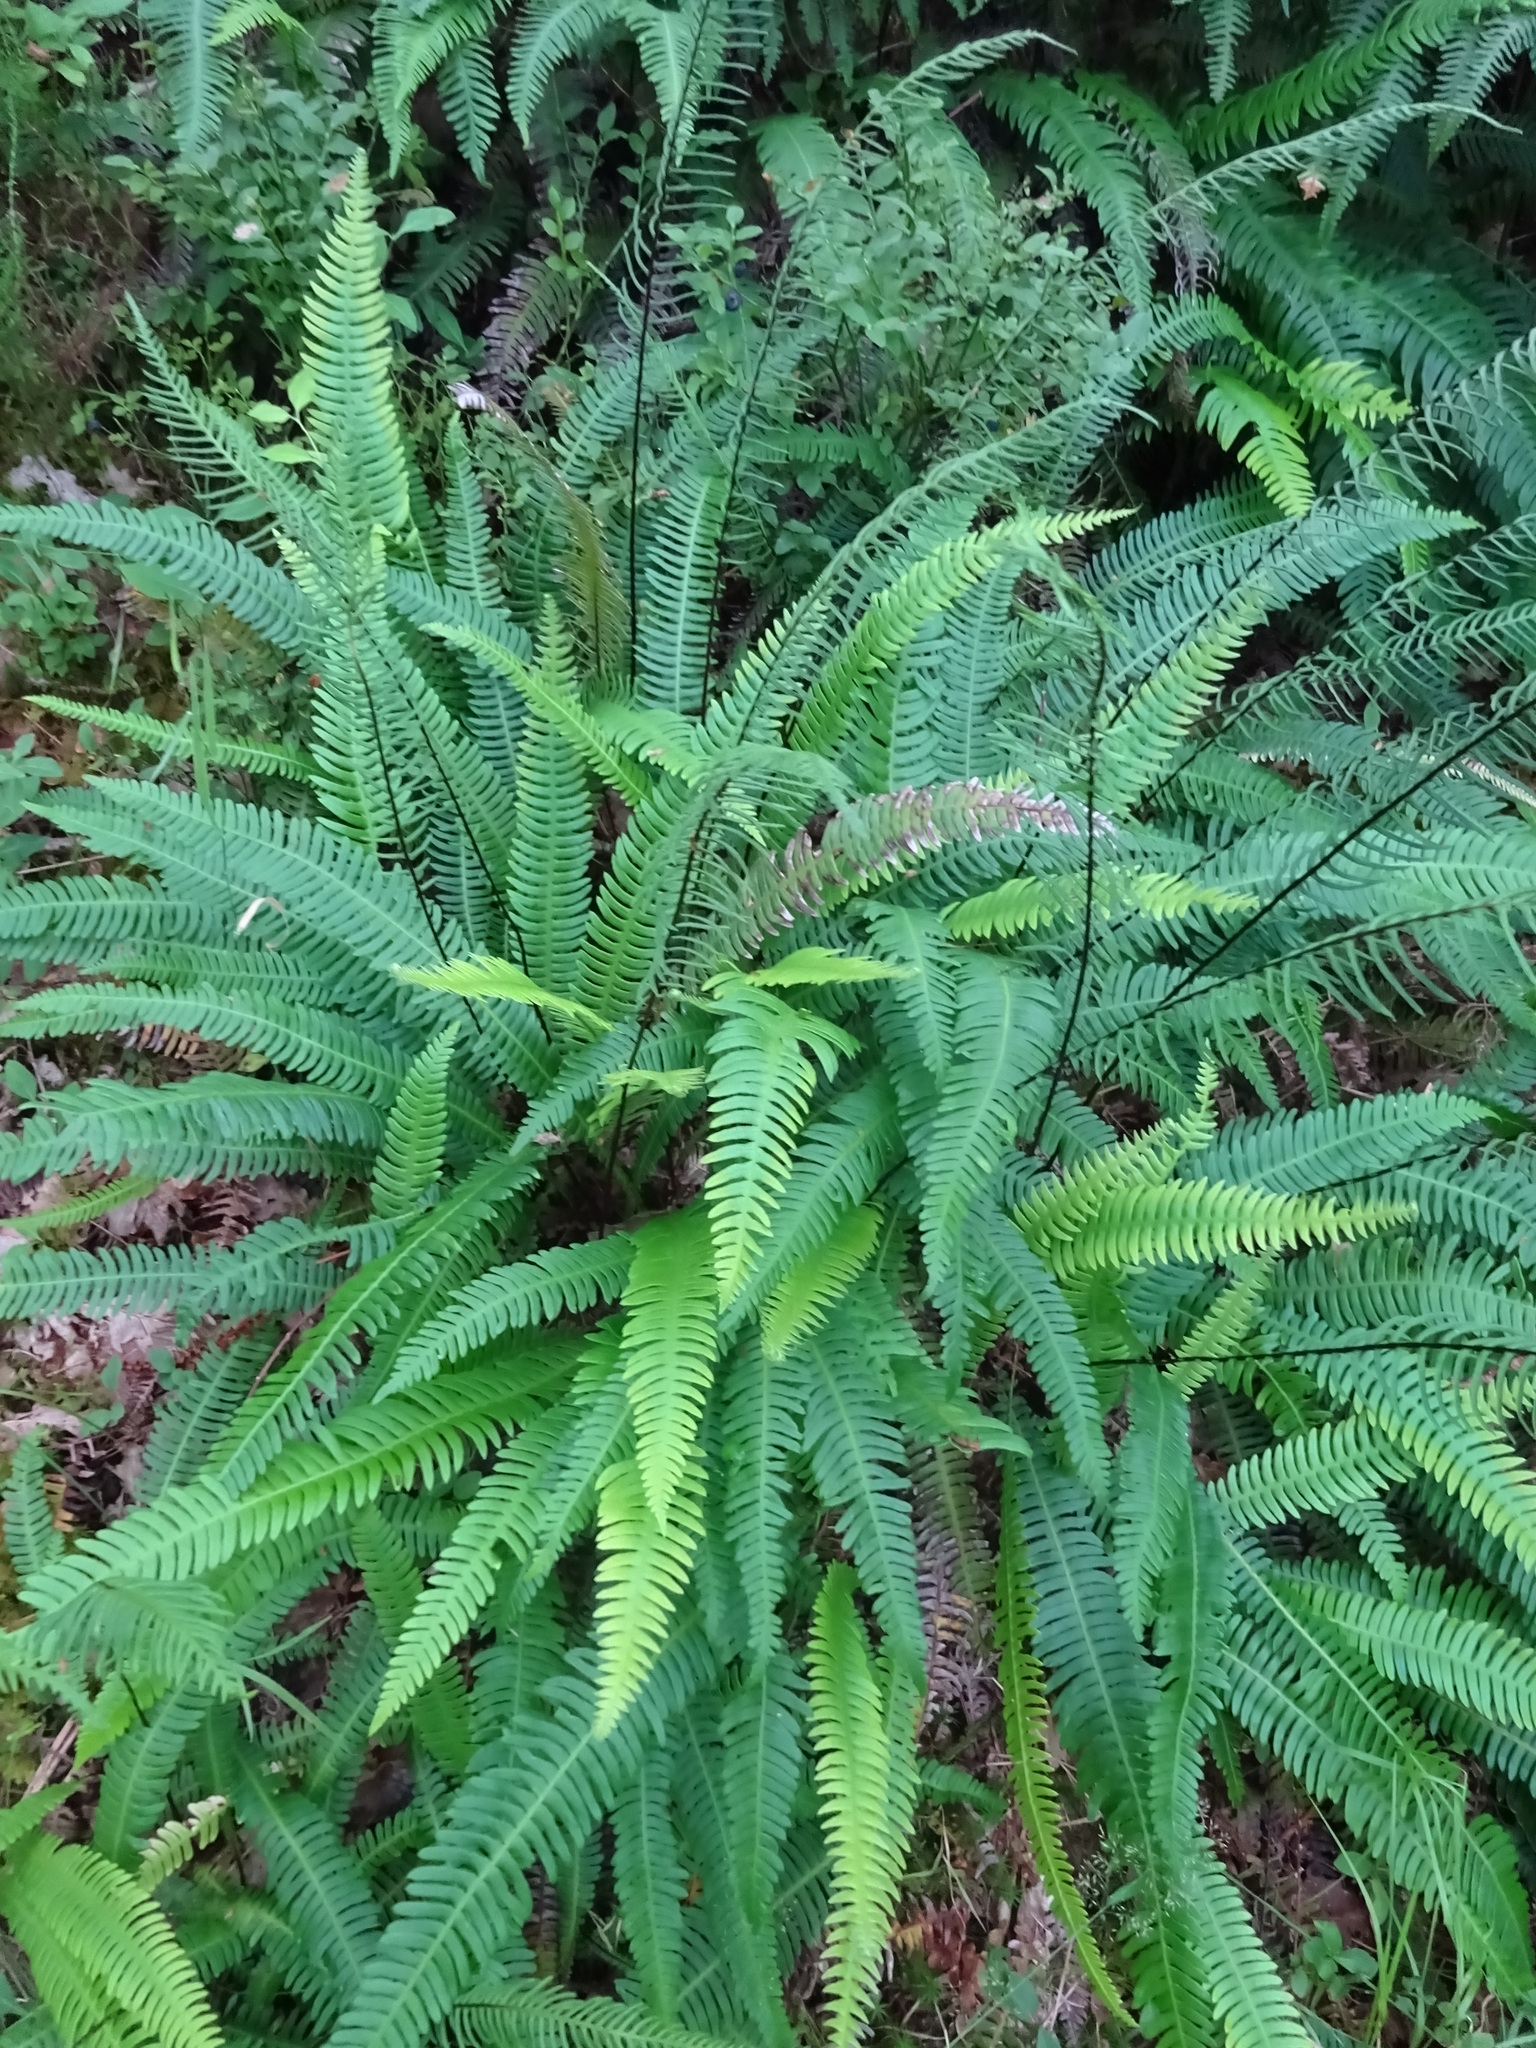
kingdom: Plantae
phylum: Tracheophyta
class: Polypodiopsida
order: Polypodiales
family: Blechnaceae
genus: Struthiopteris
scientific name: Struthiopteris spicant
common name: Deer fern
